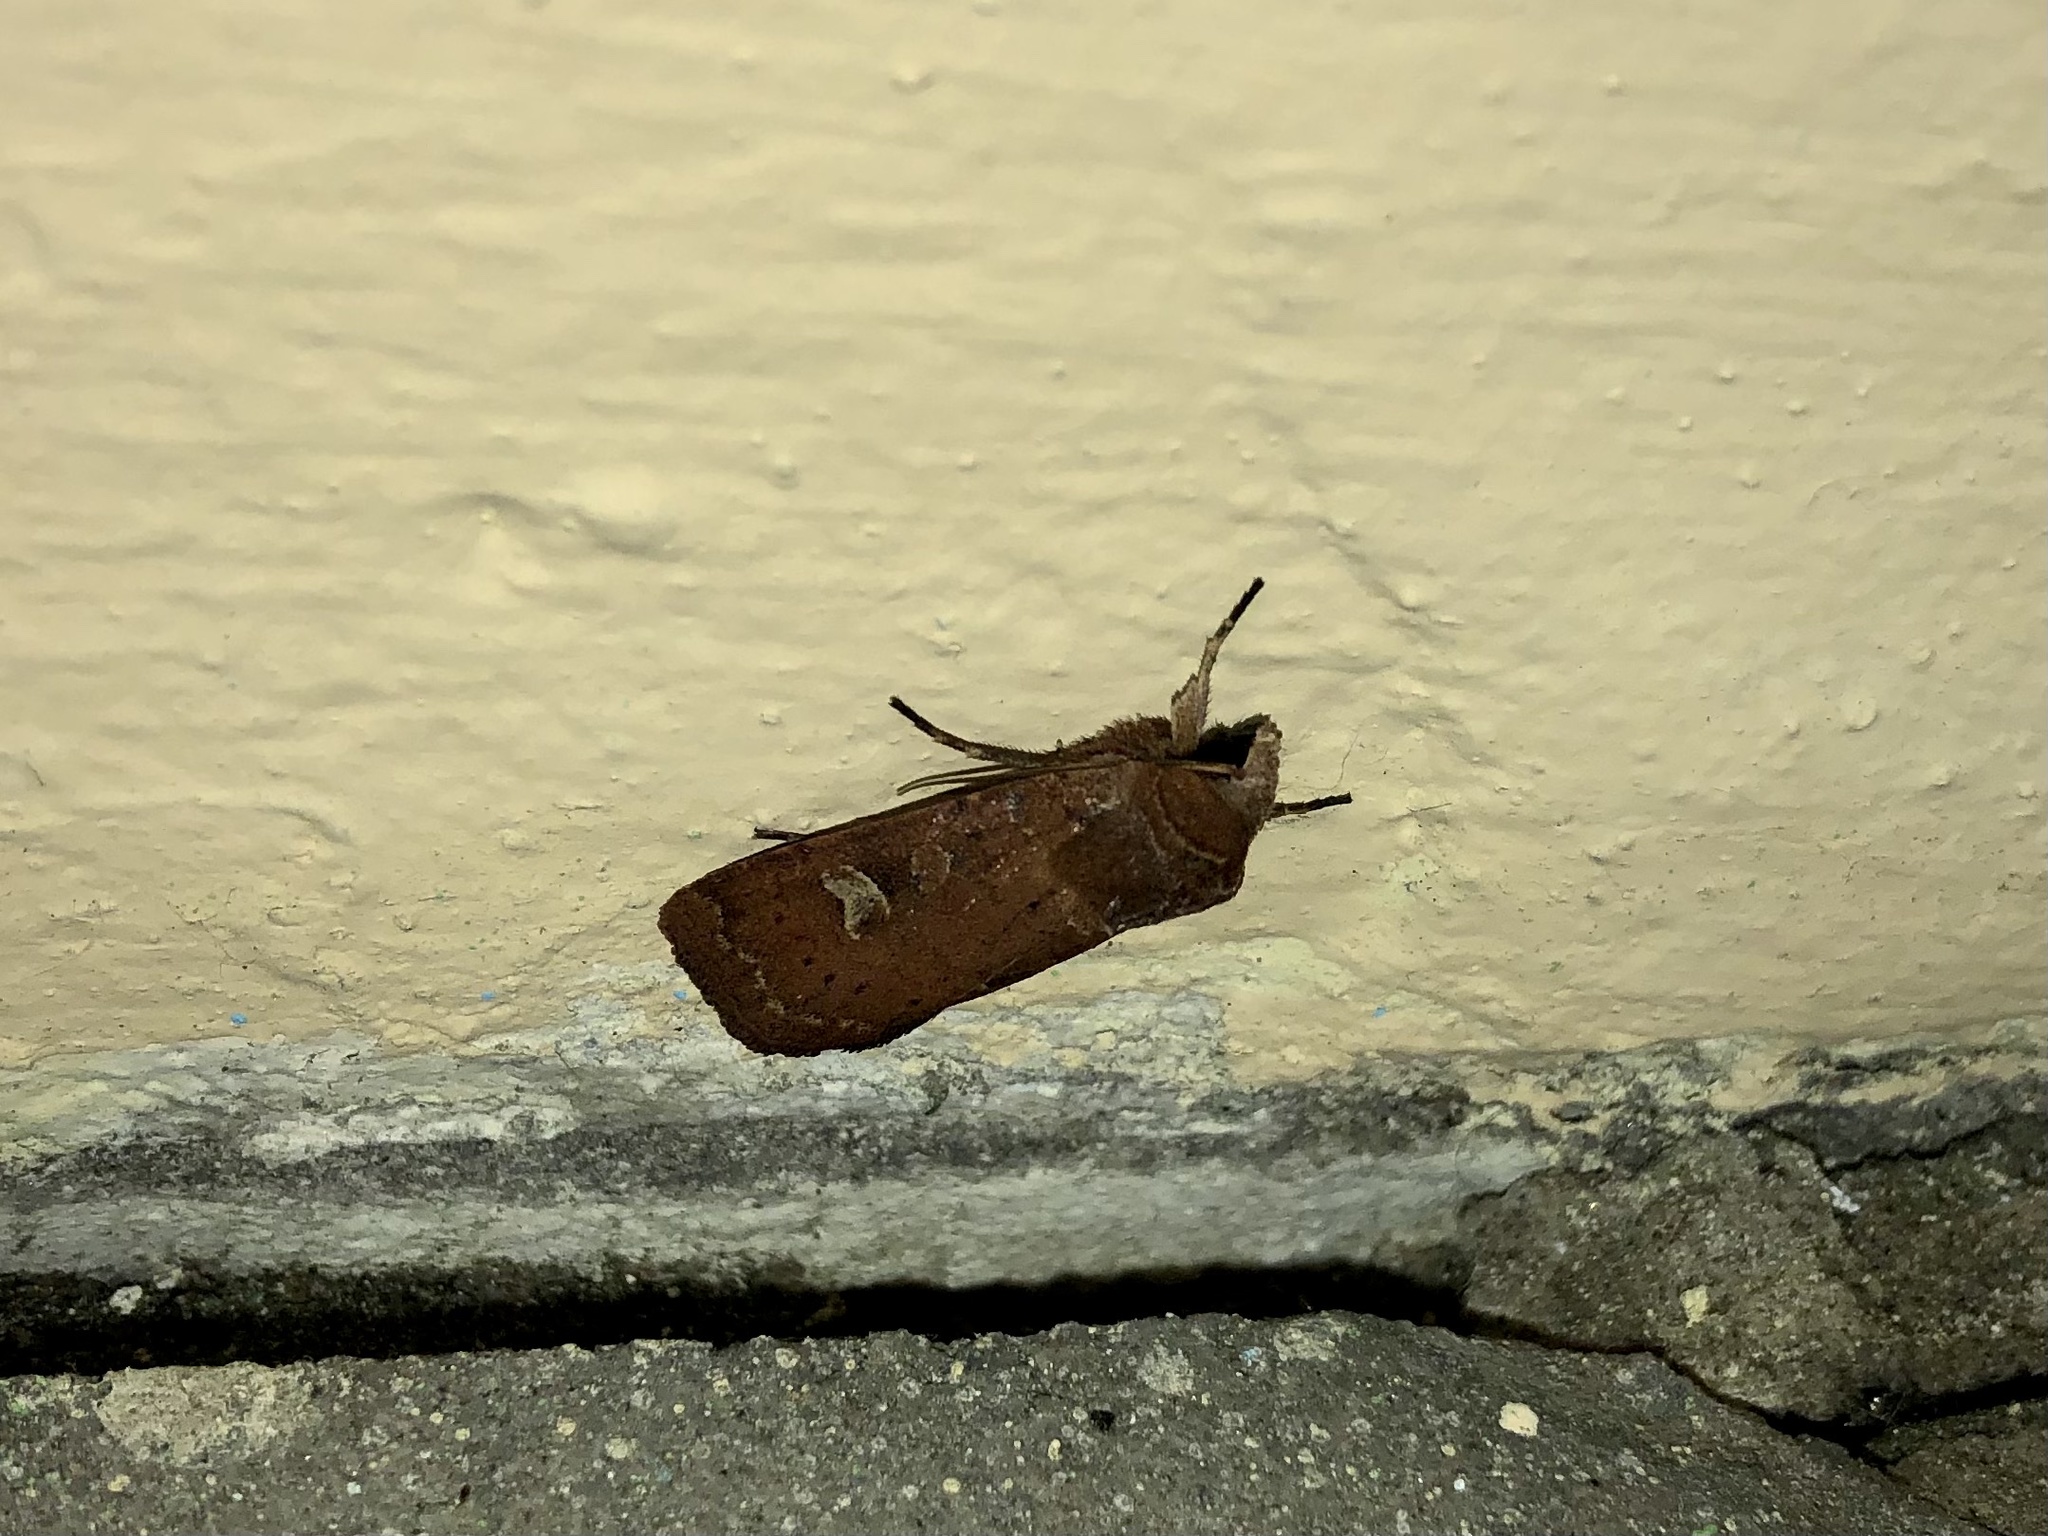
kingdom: Animalia
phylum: Arthropoda
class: Insecta
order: Lepidoptera
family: Noctuidae
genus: Xestia
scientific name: Xestia xanthographa
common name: Square-spot rustic
